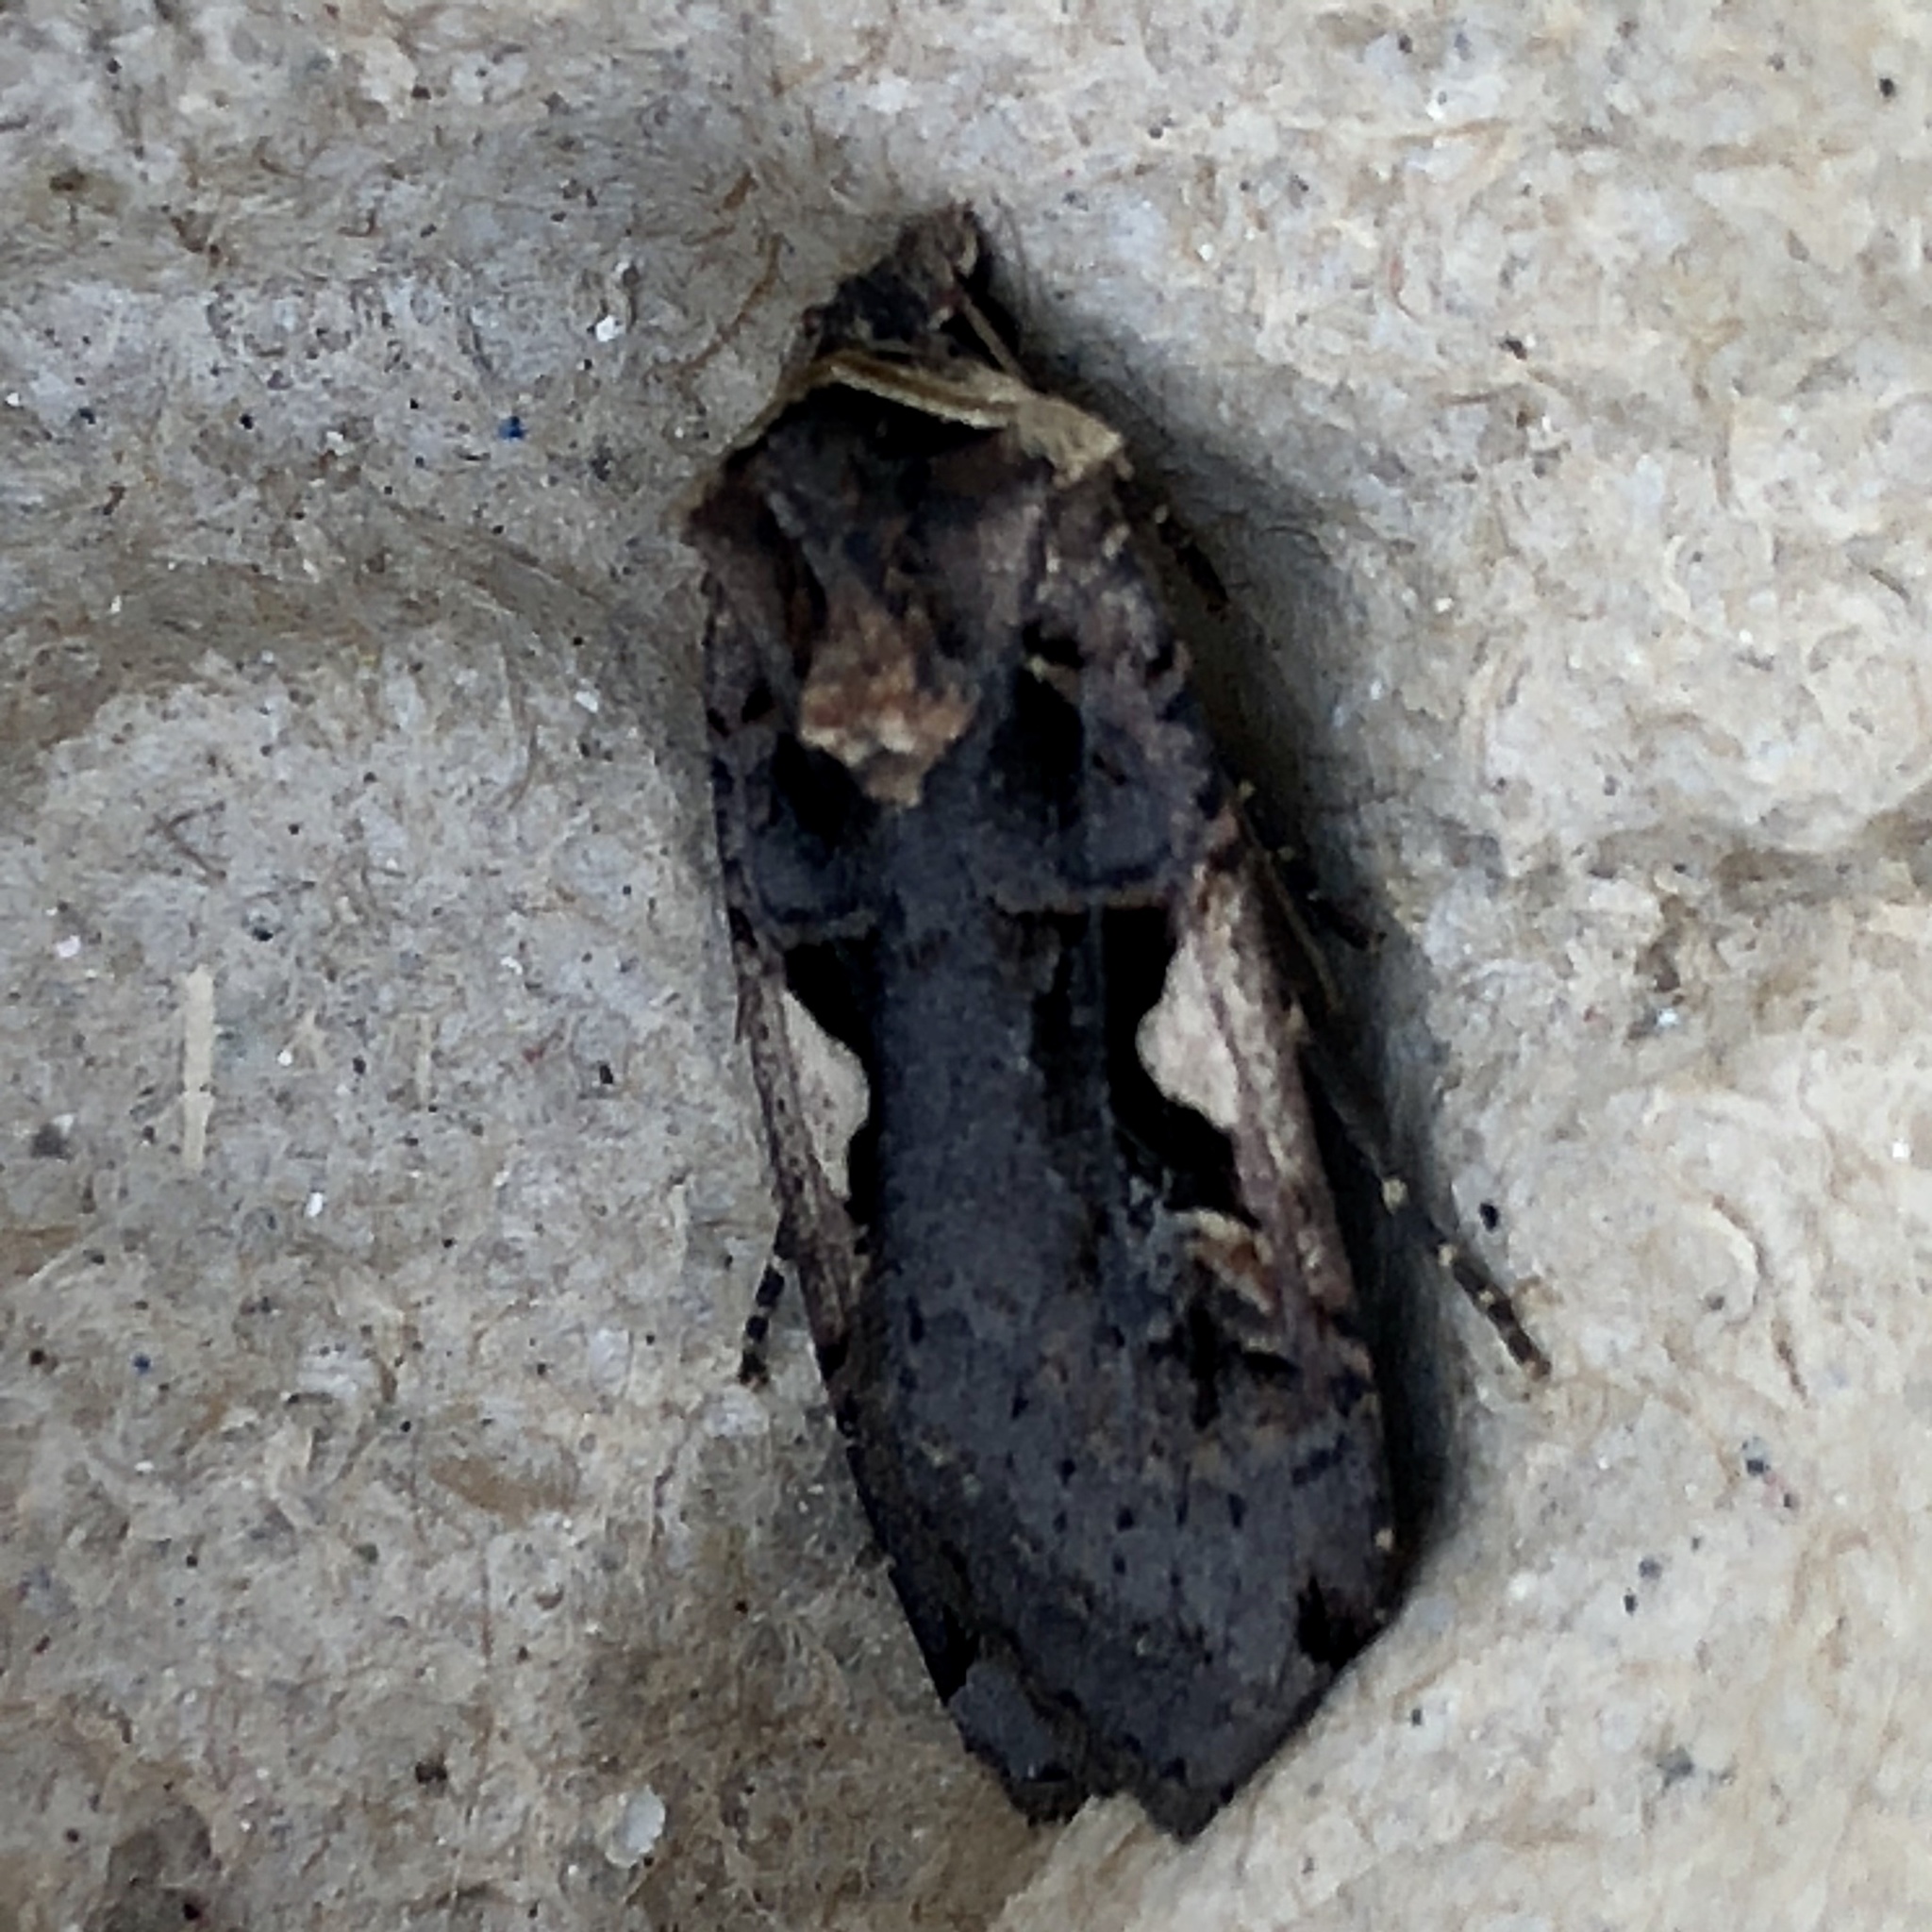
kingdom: Animalia
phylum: Arthropoda
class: Insecta
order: Lepidoptera
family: Noctuidae
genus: Xestia
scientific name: Xestia c-nigrum
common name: Setaceous hebrew character
